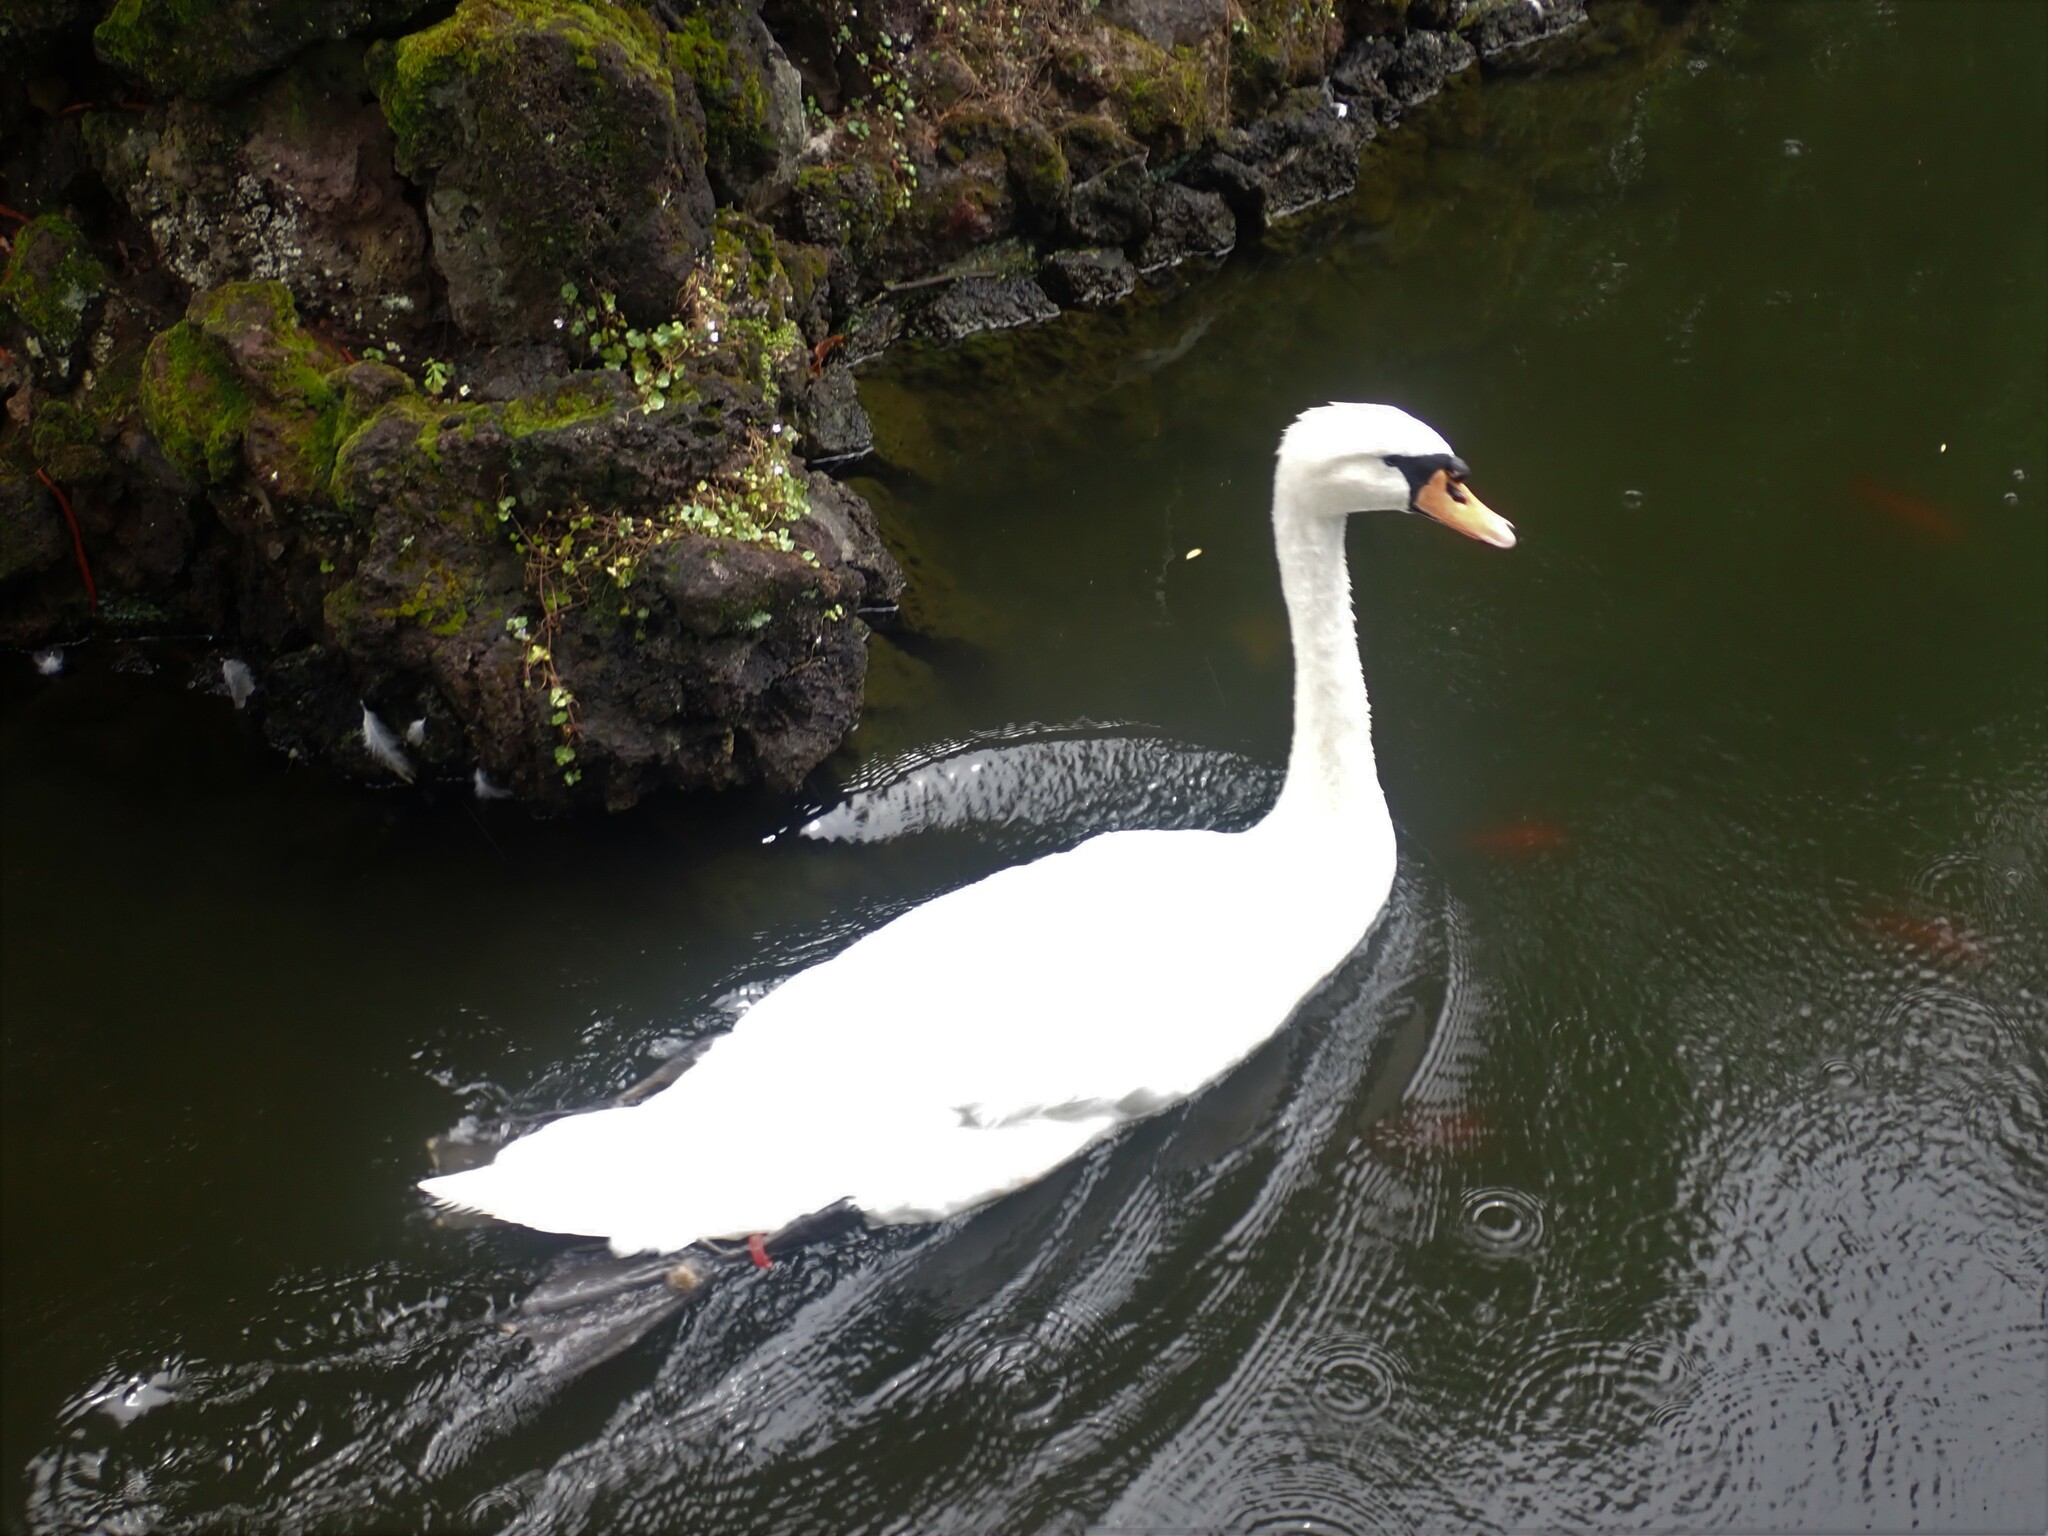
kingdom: Animalia
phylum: Chordata
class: Aves
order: Anseriformes
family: Anatidae
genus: Cygnus
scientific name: Cygnus olor
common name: Mute swan
